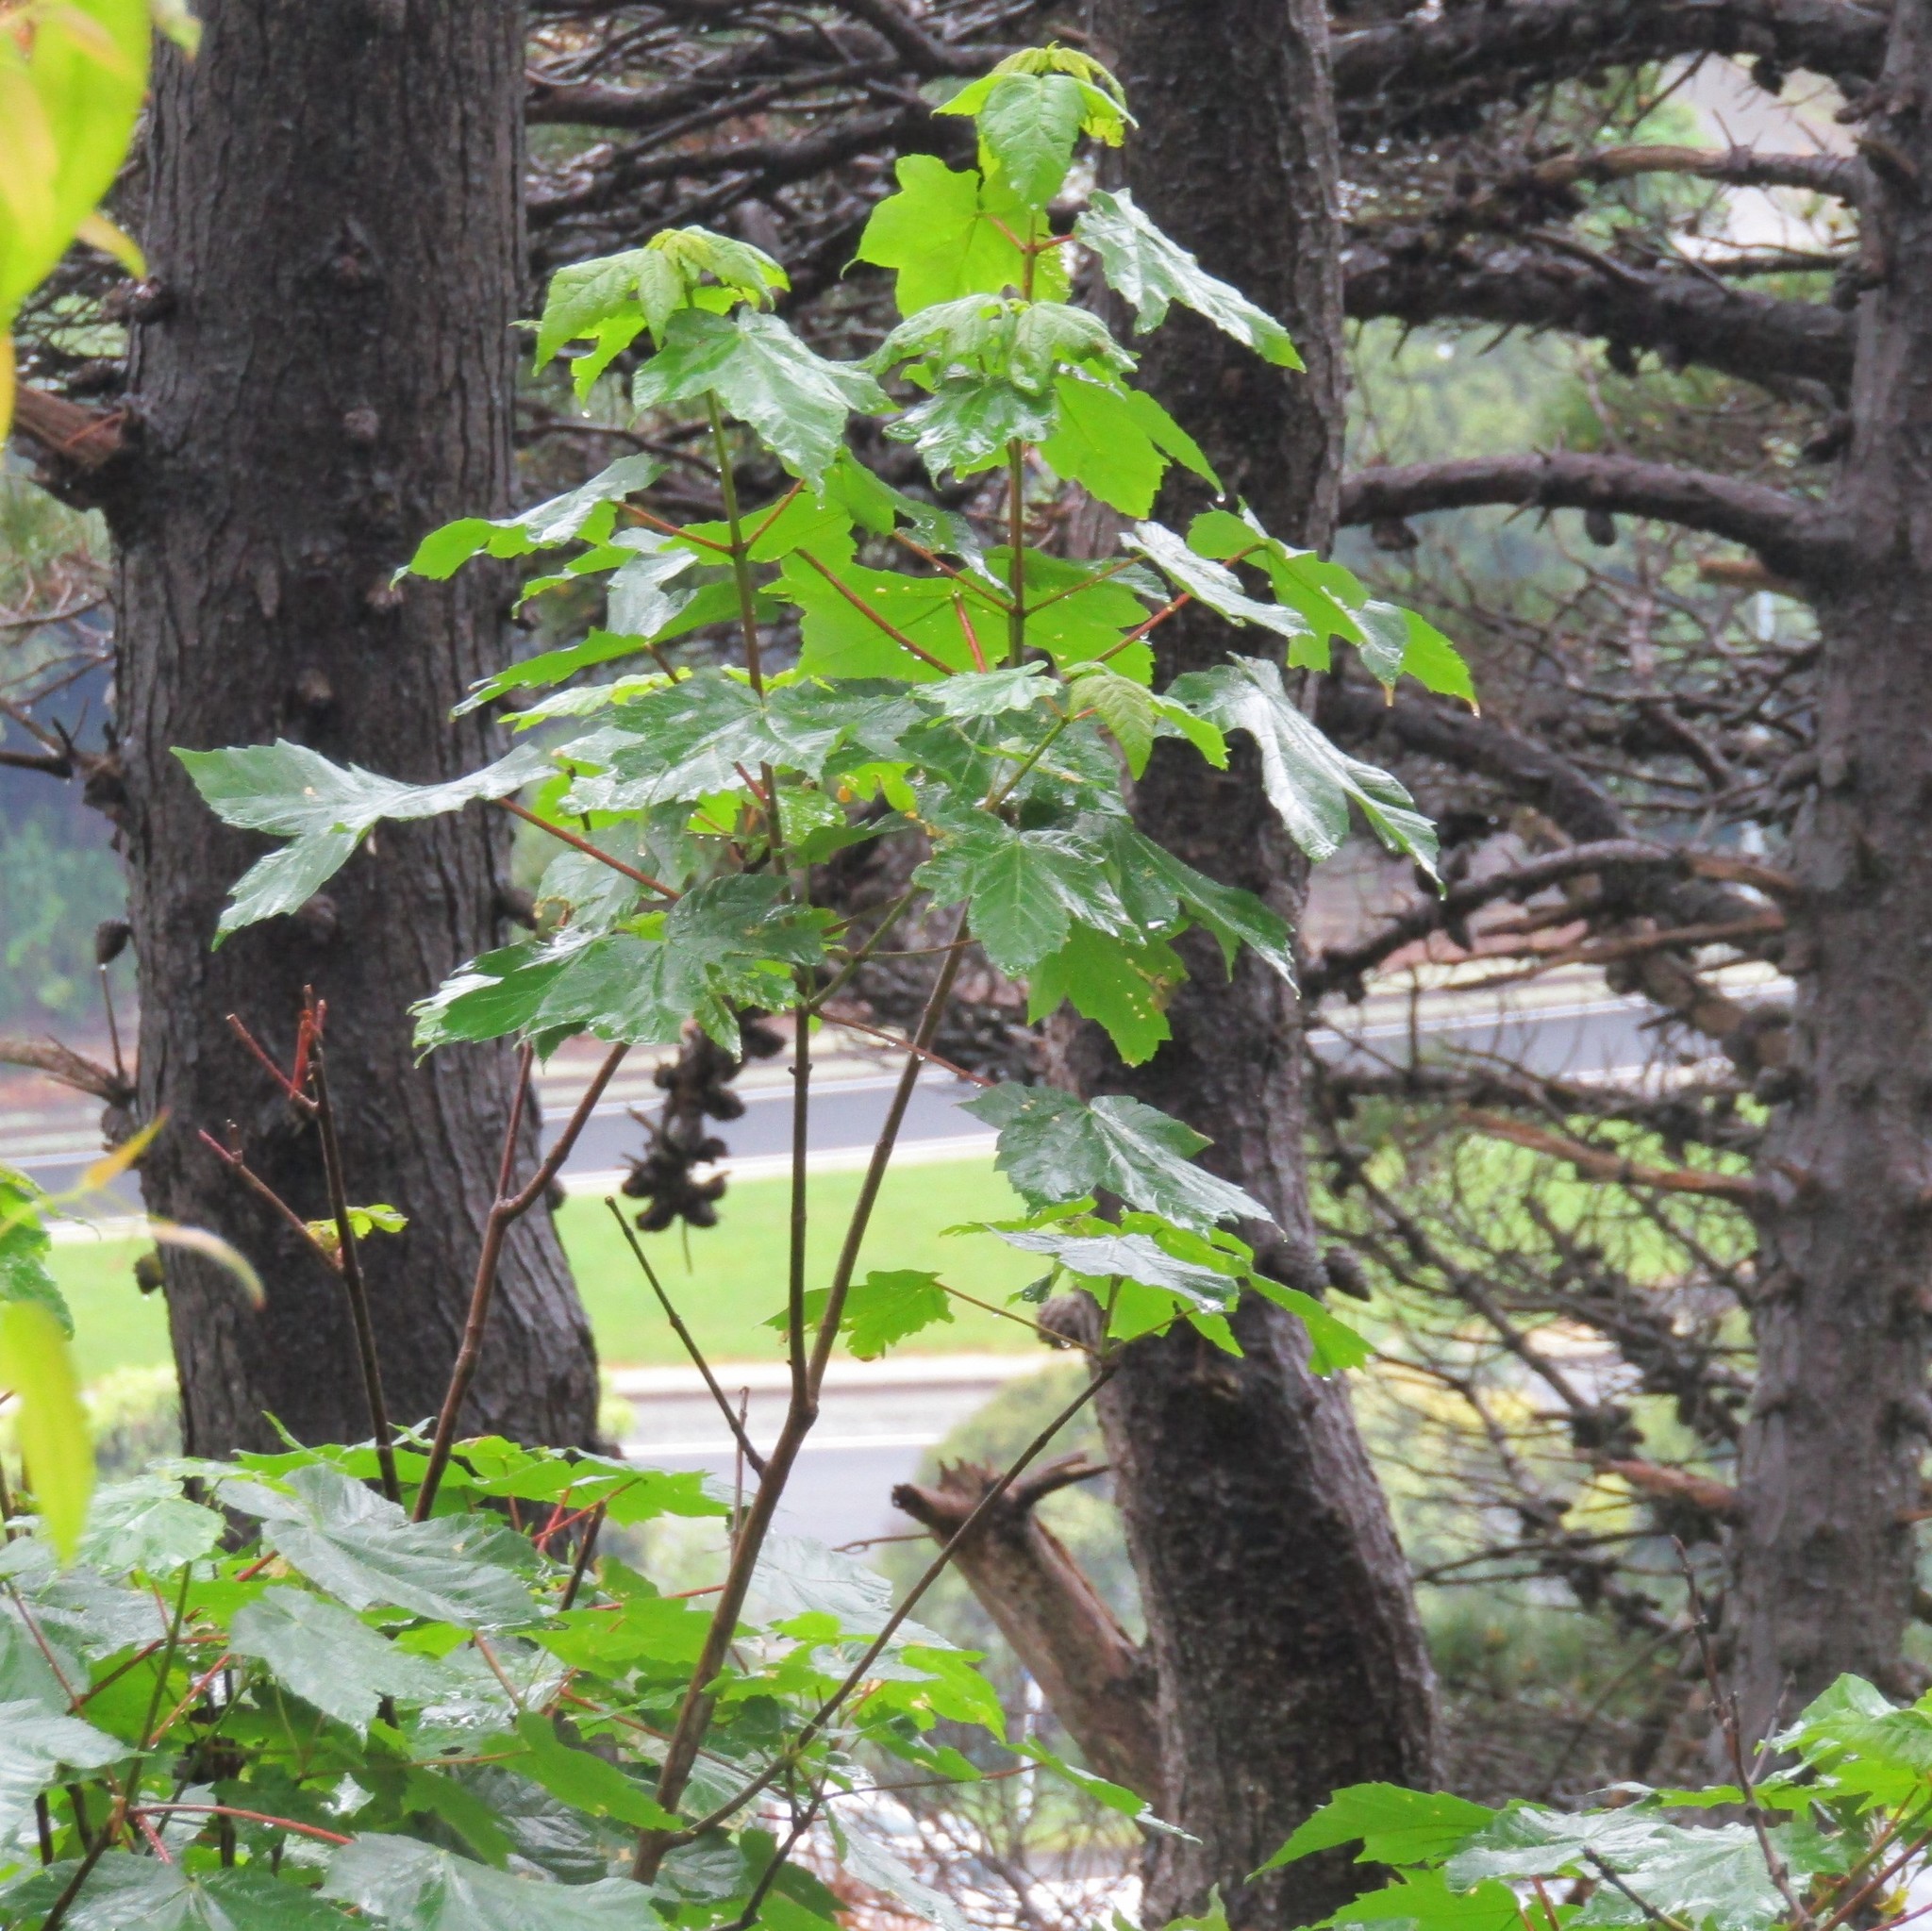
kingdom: Plantae
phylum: Tracheophyta
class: Magnoliopsida
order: Sapindales
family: Sapindaceae
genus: Acer
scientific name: Acer pseudoplatanus
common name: Sycamore
